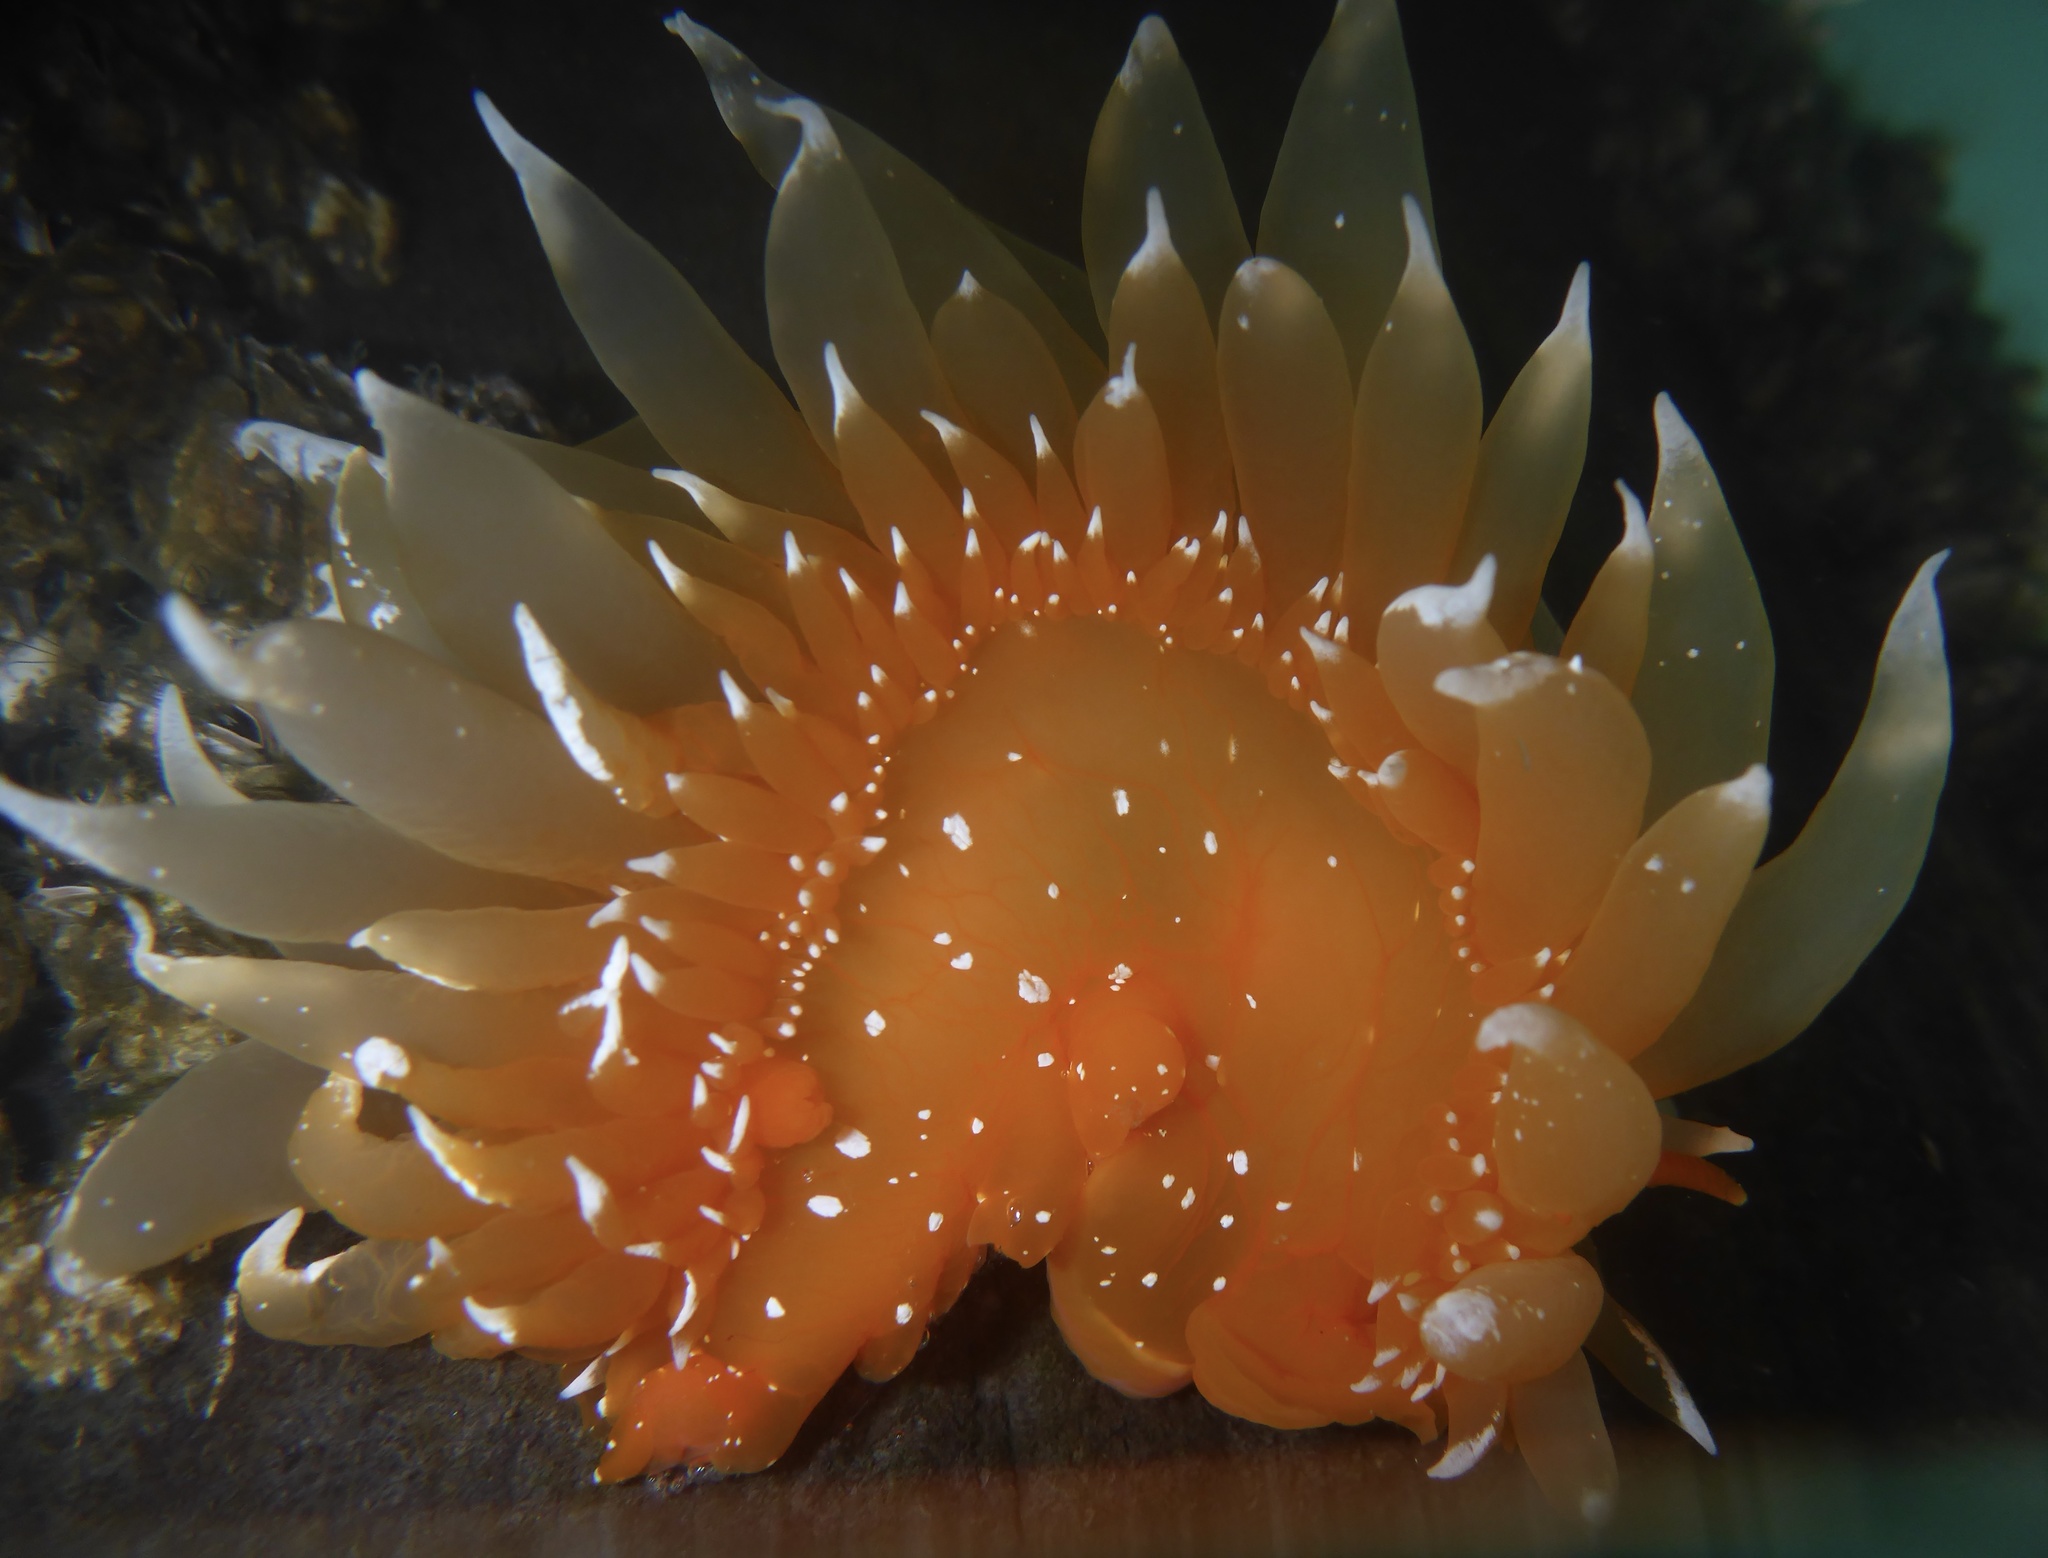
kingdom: Animalia
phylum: Mollusca
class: Gastropoda
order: Nudibranchia
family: Dironidae
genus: Dirona
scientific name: Dirona pellucida
